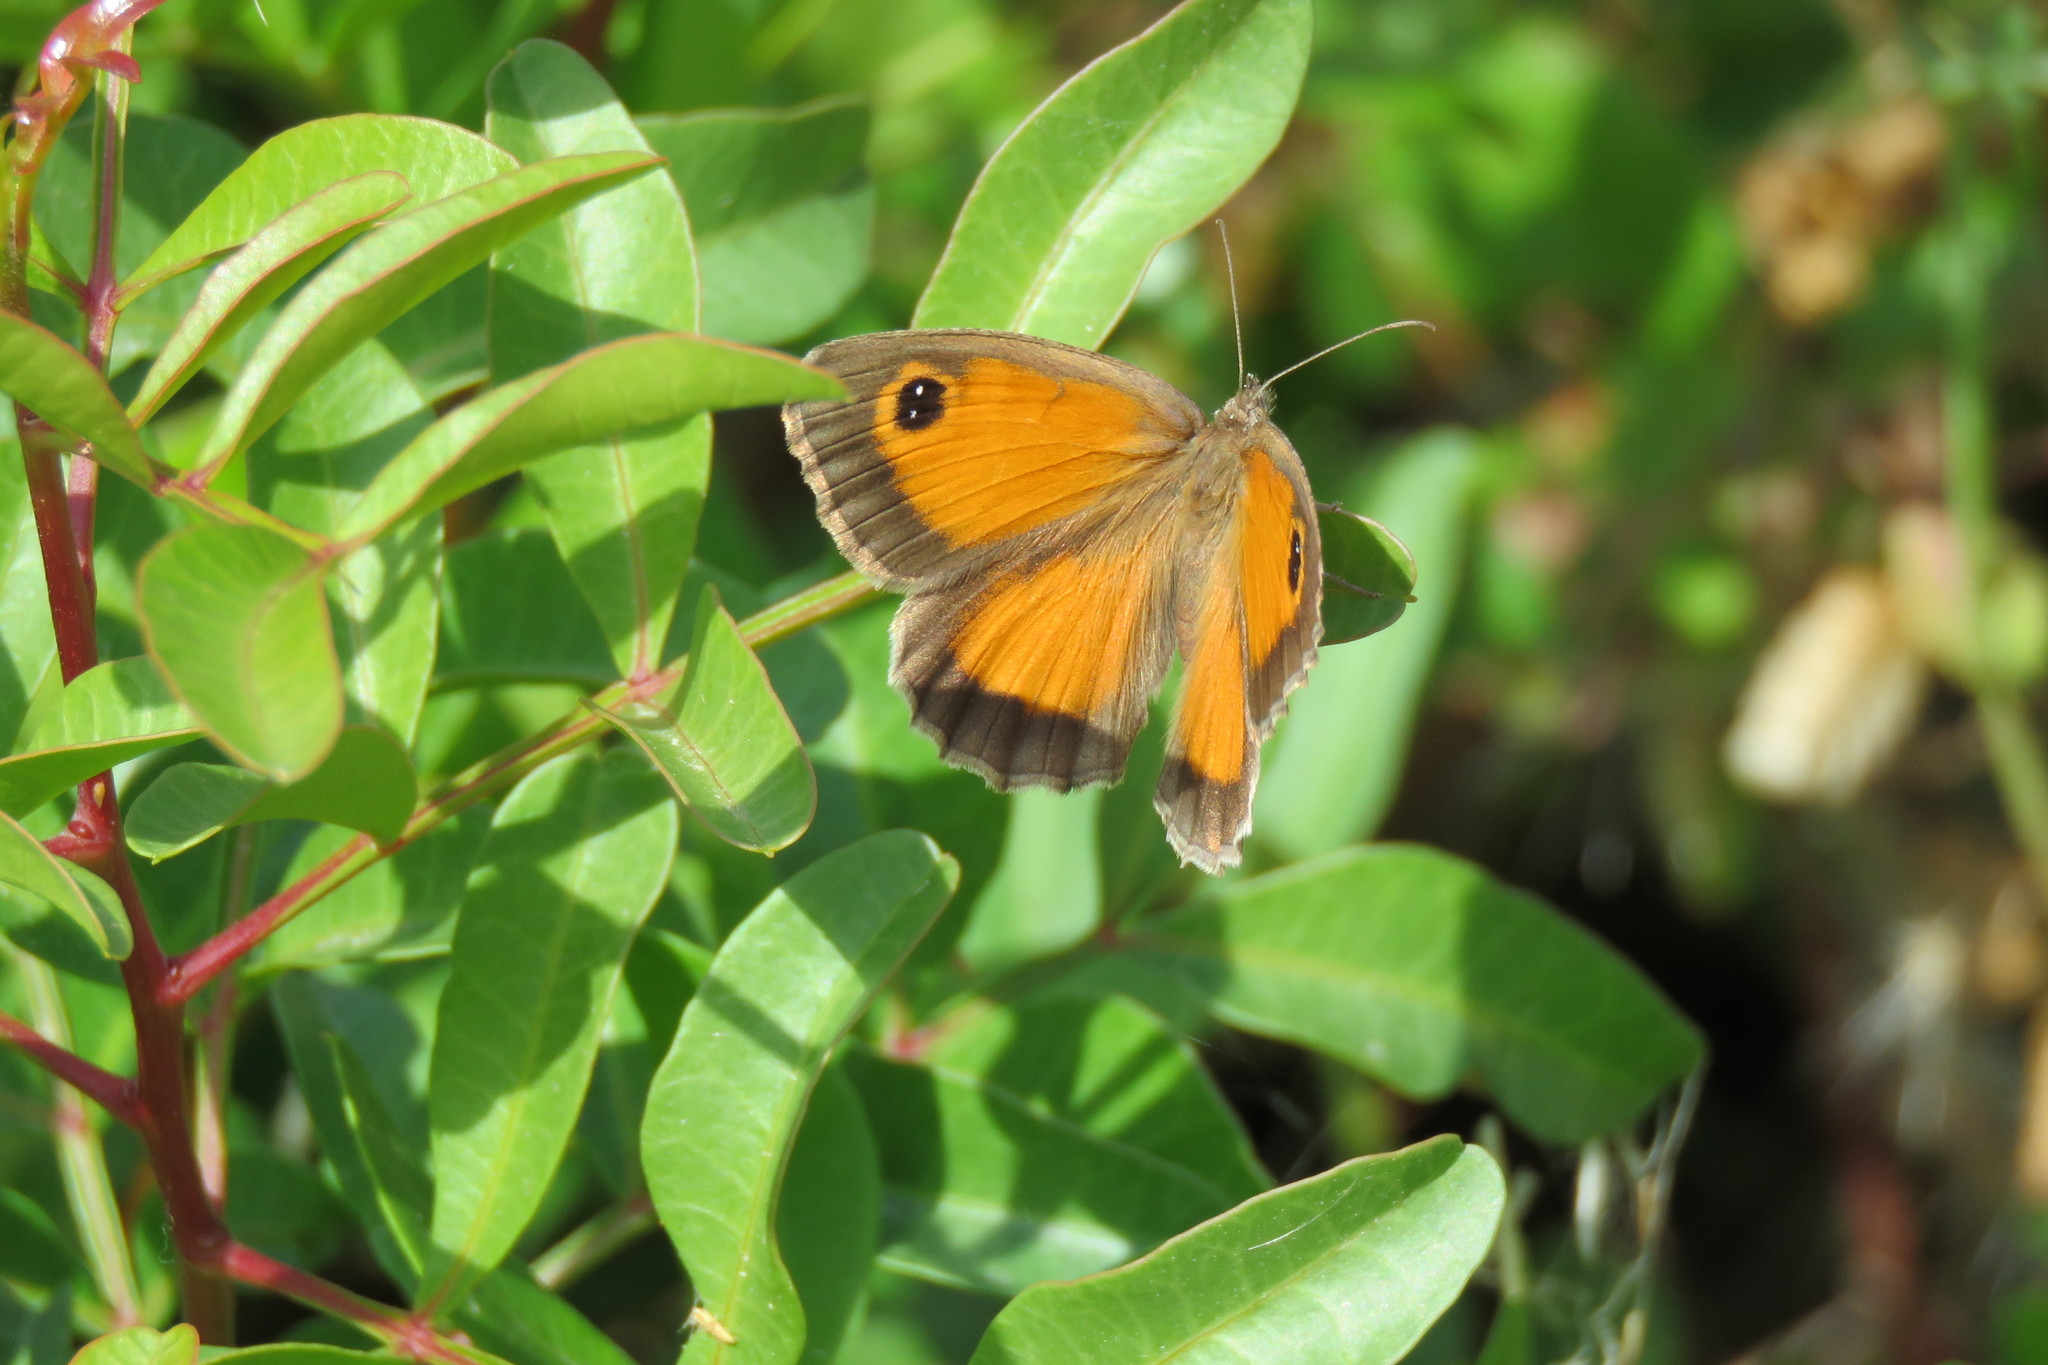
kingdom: Animalia
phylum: Arthropoda
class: Insecta
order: Lepidoptera
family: Nymphalidae
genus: Pyronia
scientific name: Pyronia cecilia
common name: Southern gatekeeper
